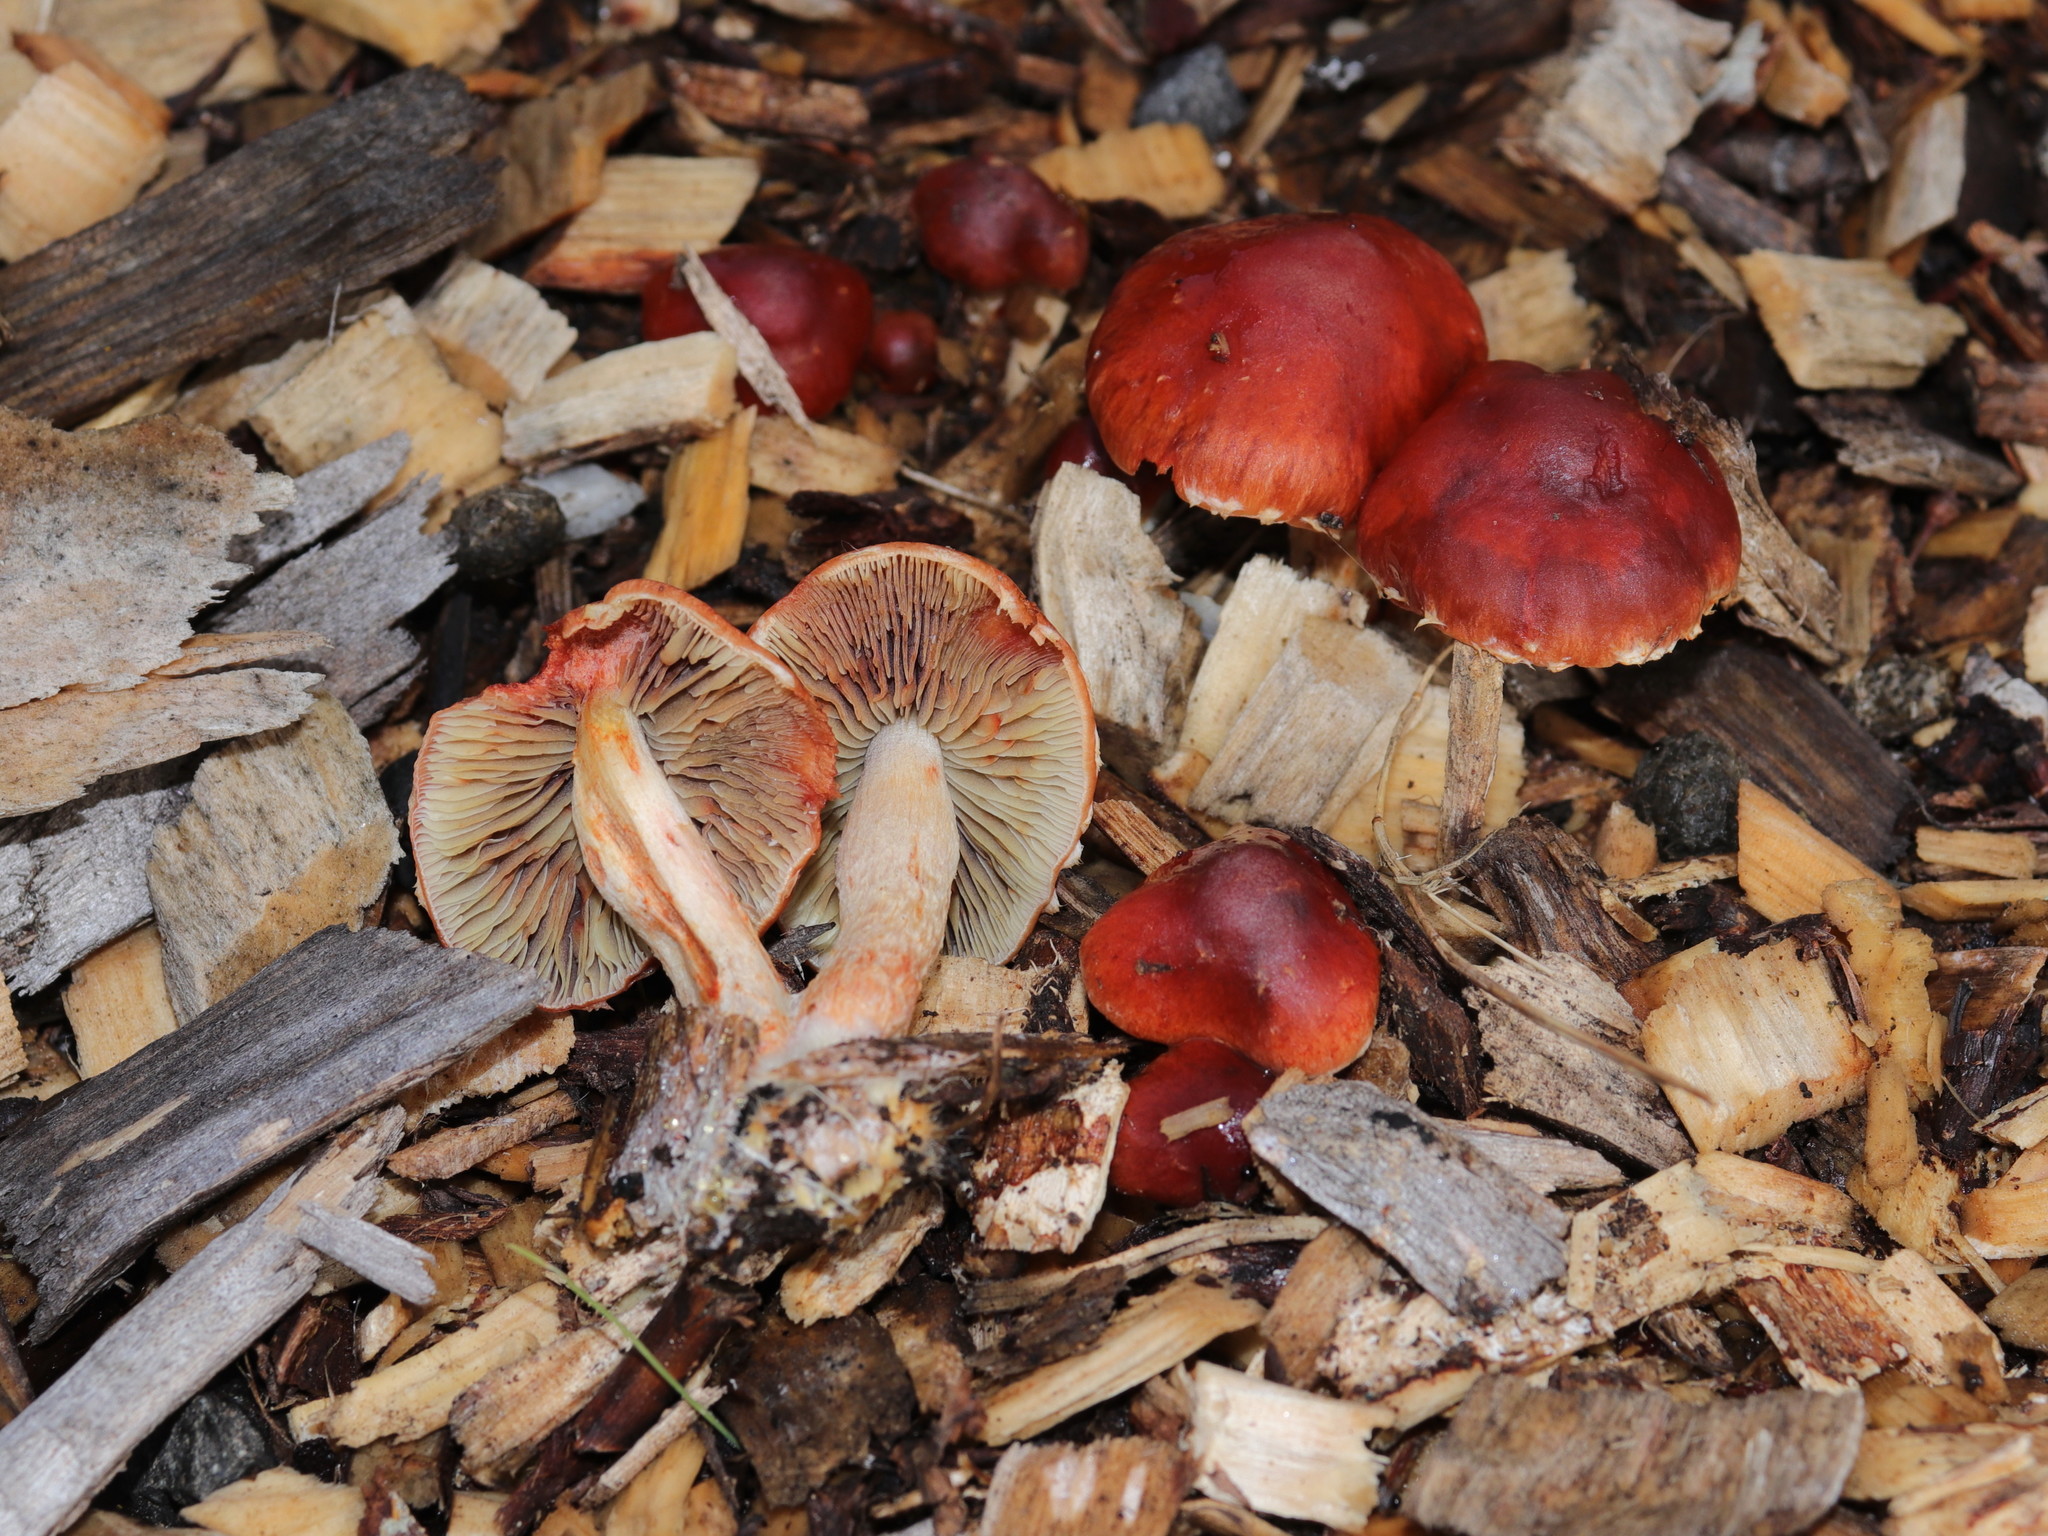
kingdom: Fungi
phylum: Basidiomycota
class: Agaricomycetes
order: Agaricales
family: Strophariaceae
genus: Leratiomyces
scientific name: Leratiomyces ceres
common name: Redlead roundhead
